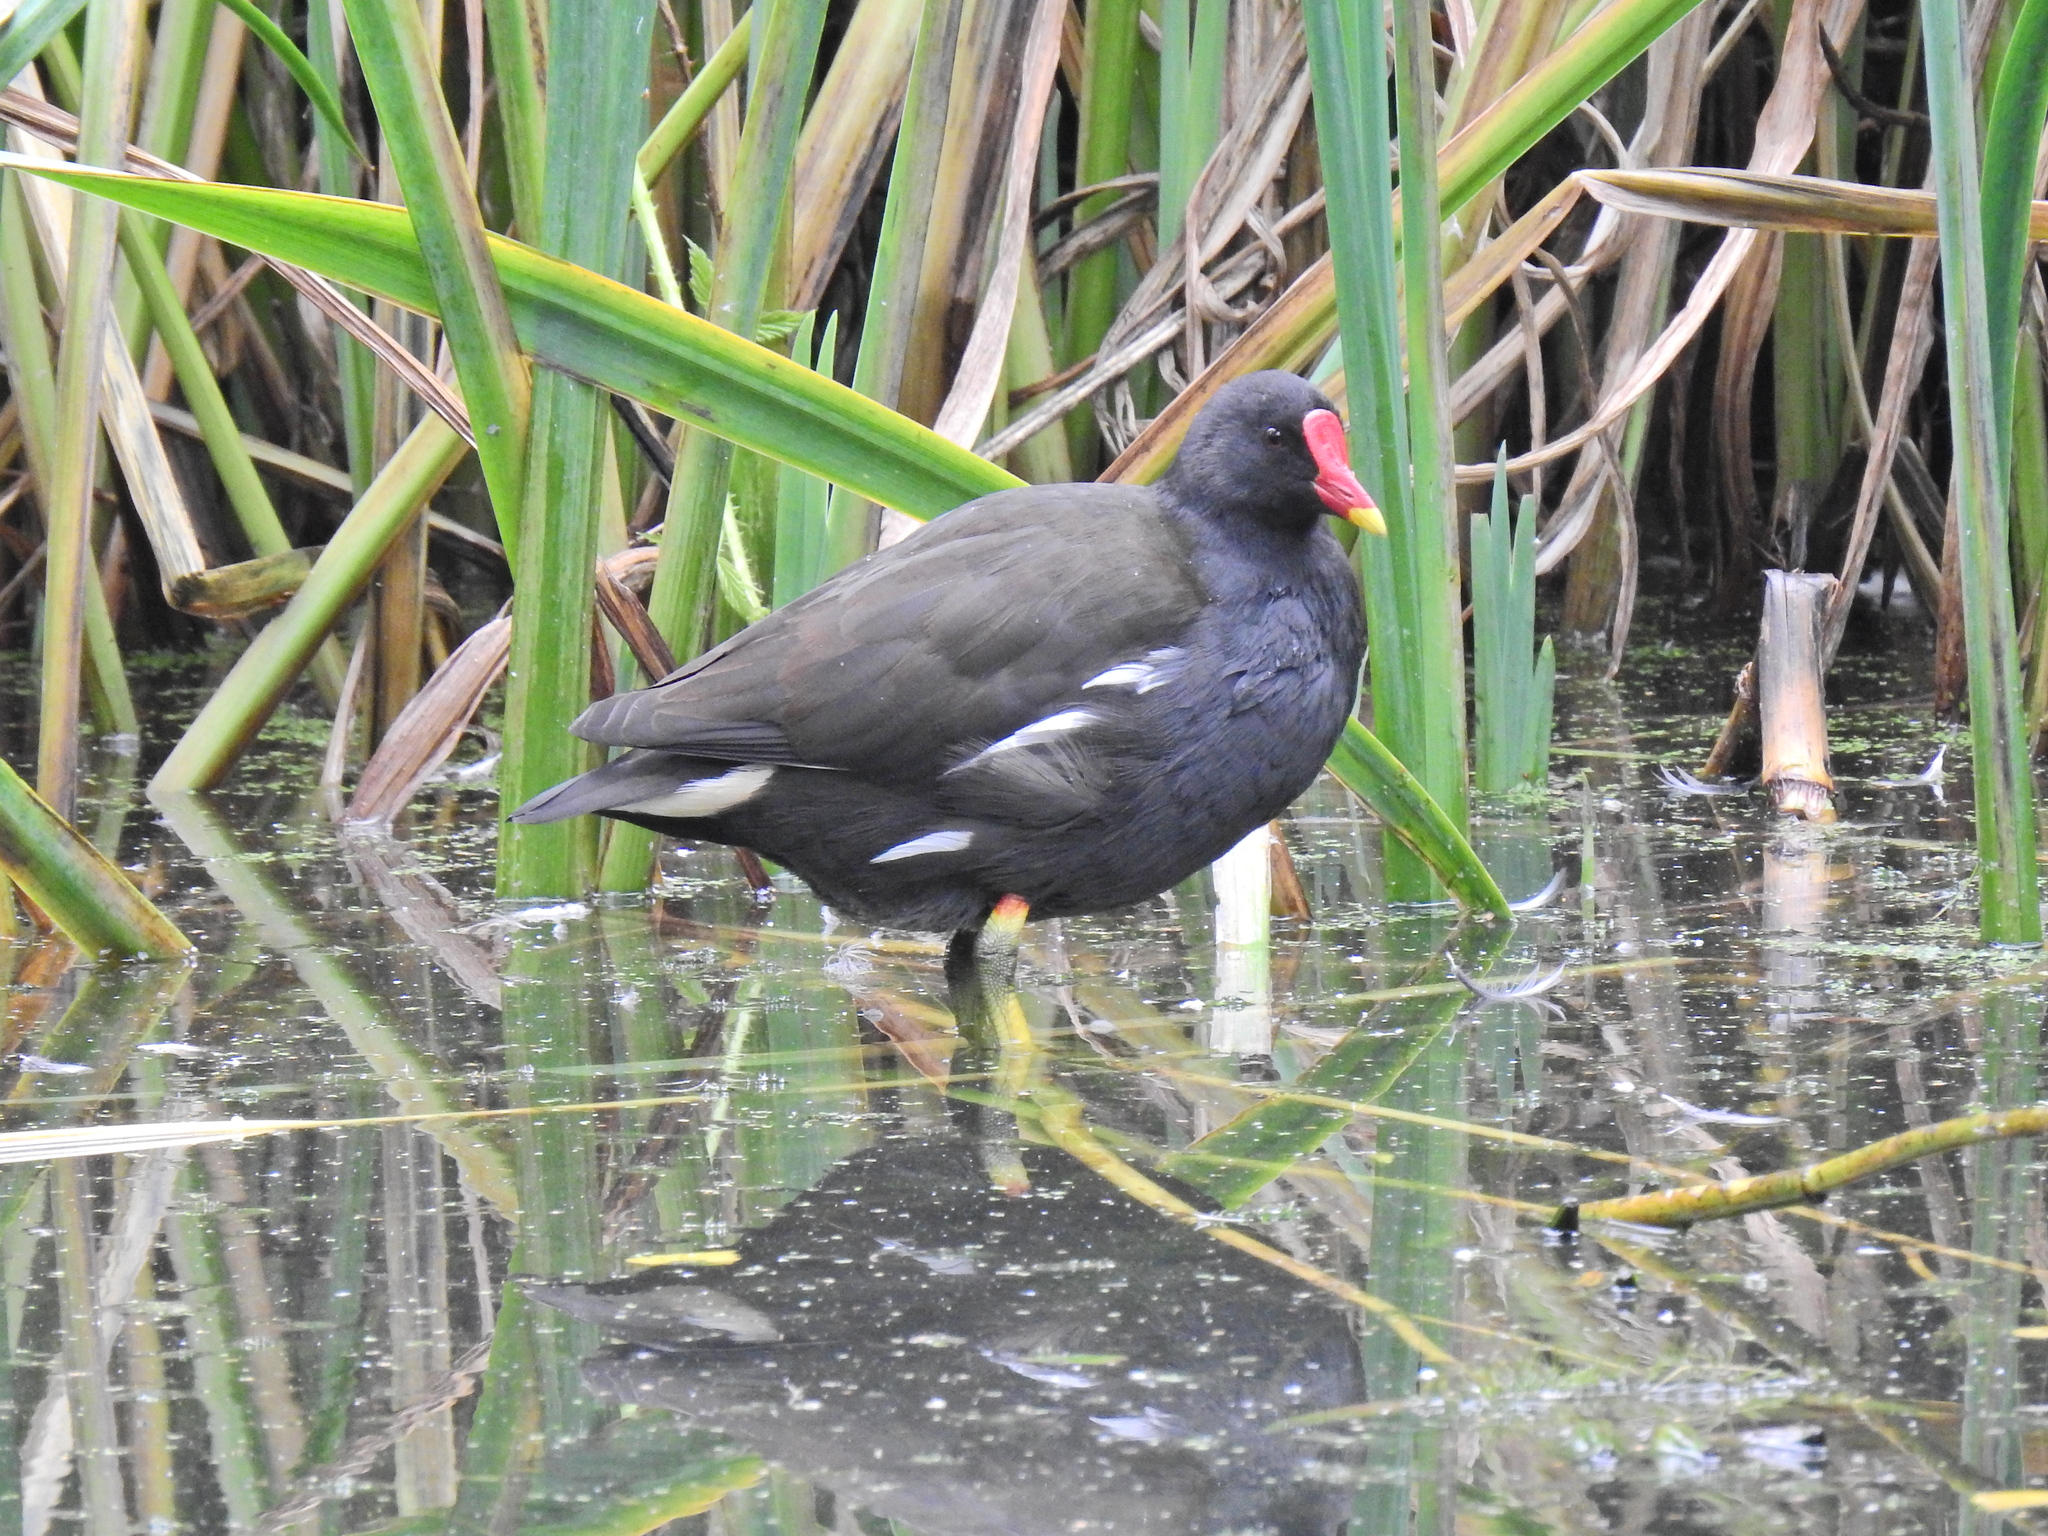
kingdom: Animalia
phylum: Chordata
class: Aves
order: Gruiformes
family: Rallidae
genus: Gallinula
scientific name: Gallinula chloropus
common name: Common moorhen
